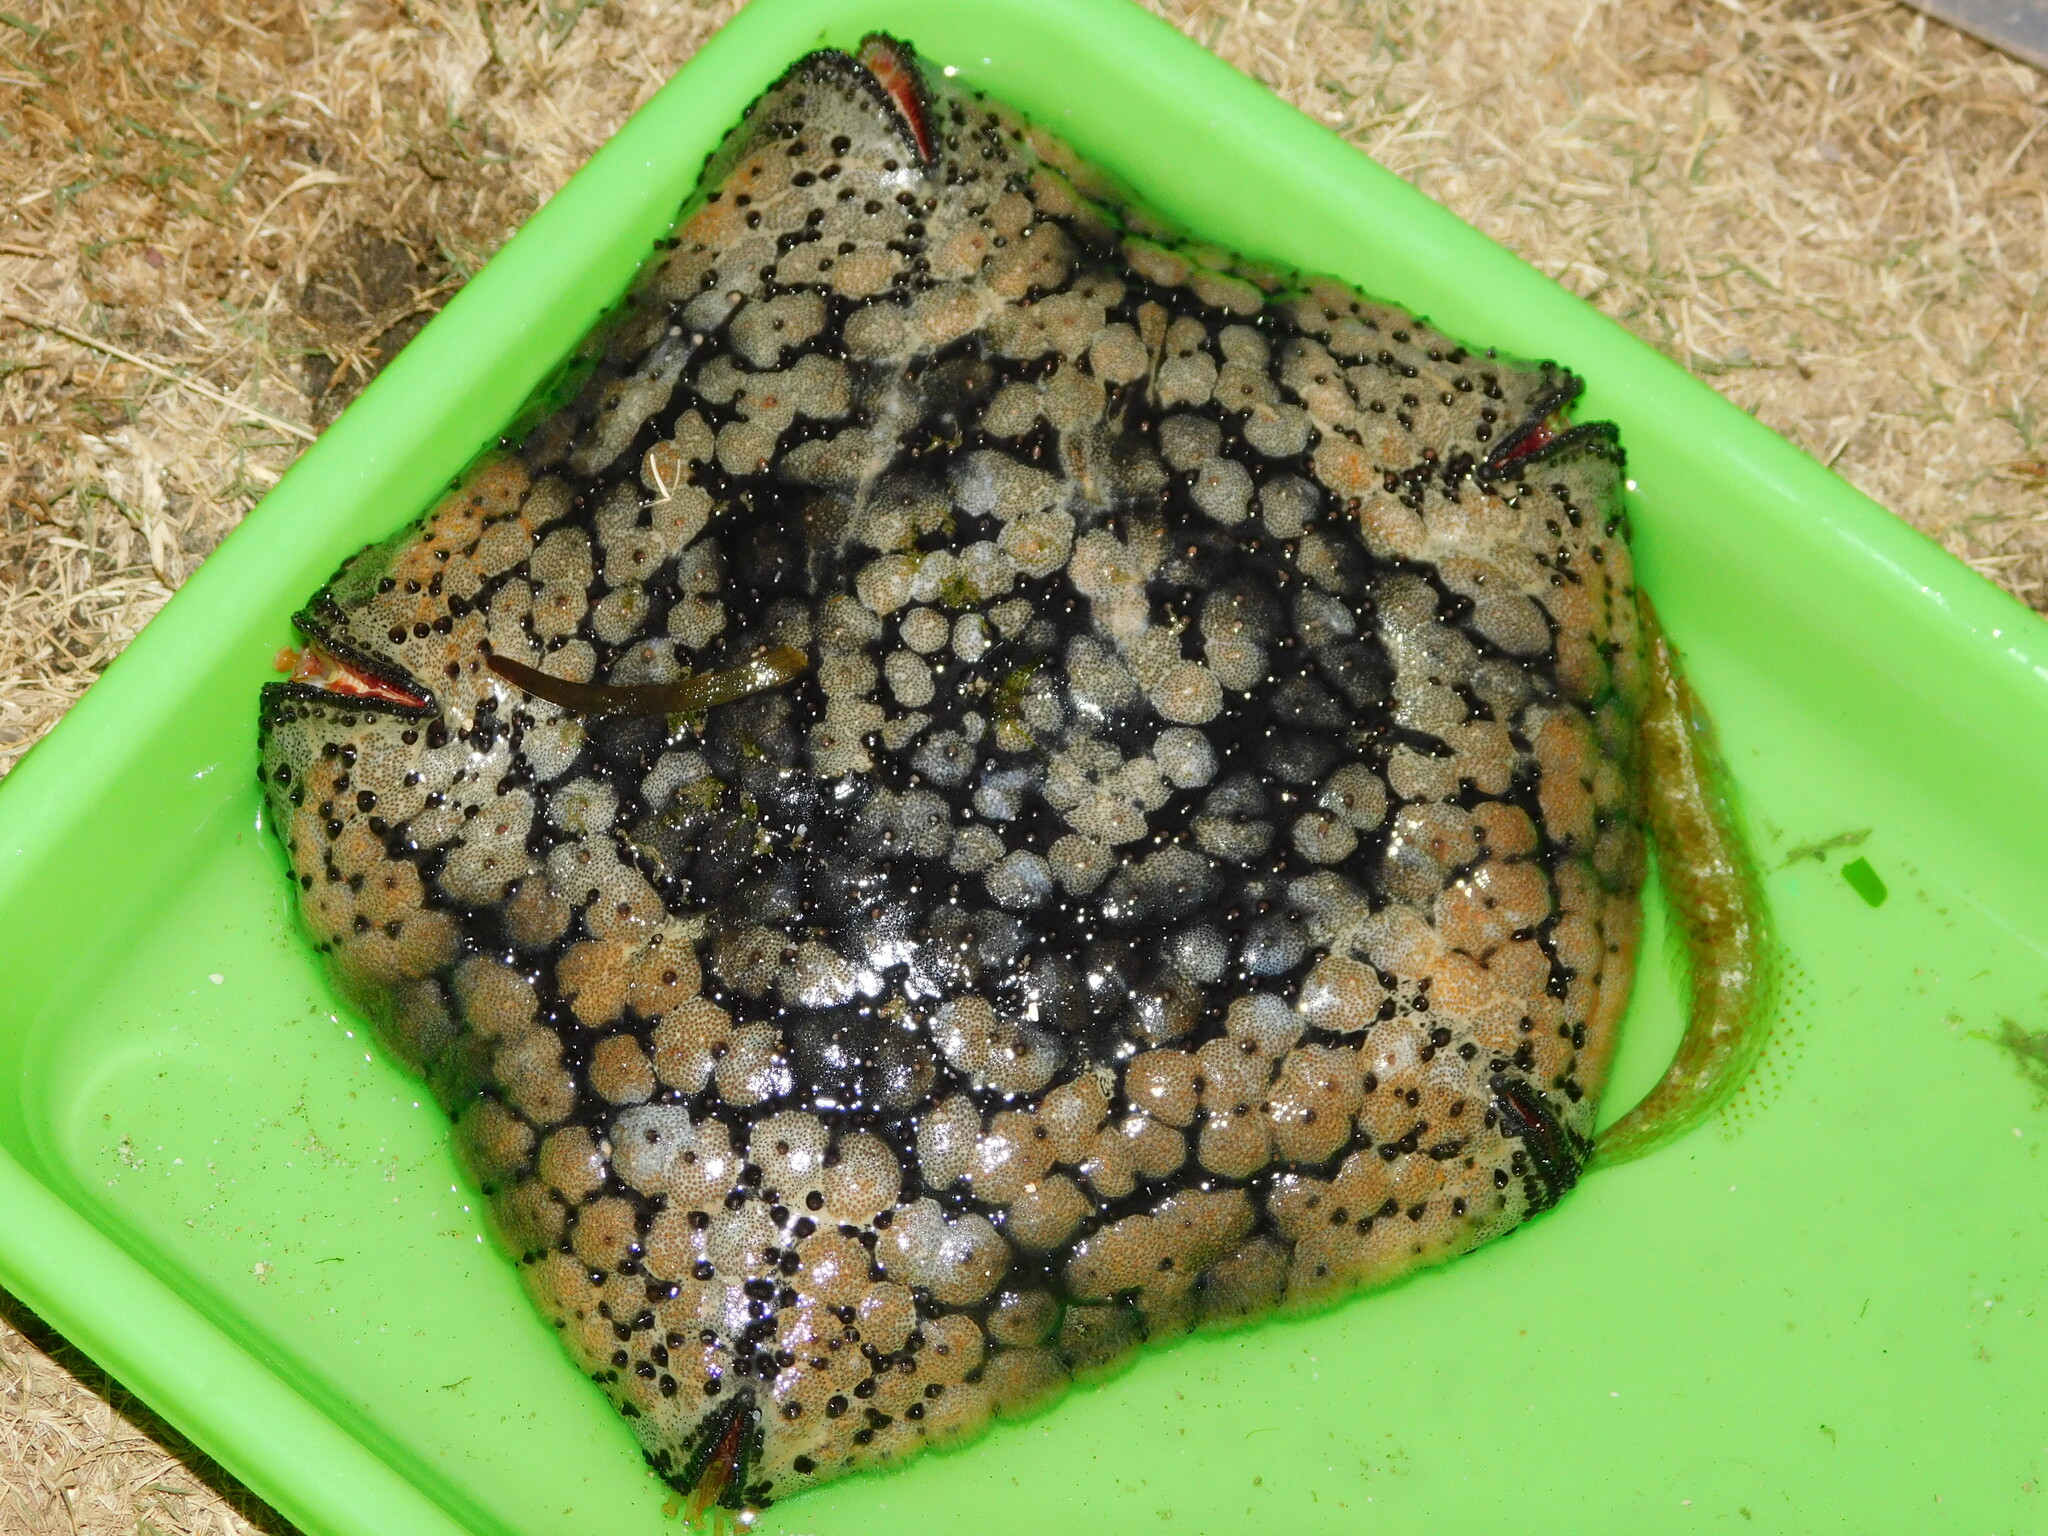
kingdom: Animalia
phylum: Echinodermata
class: Asteroidea
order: Valvatida
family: Oreasteridae
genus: Culcita
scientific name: Culcita novaeguineae
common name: Cushion star
